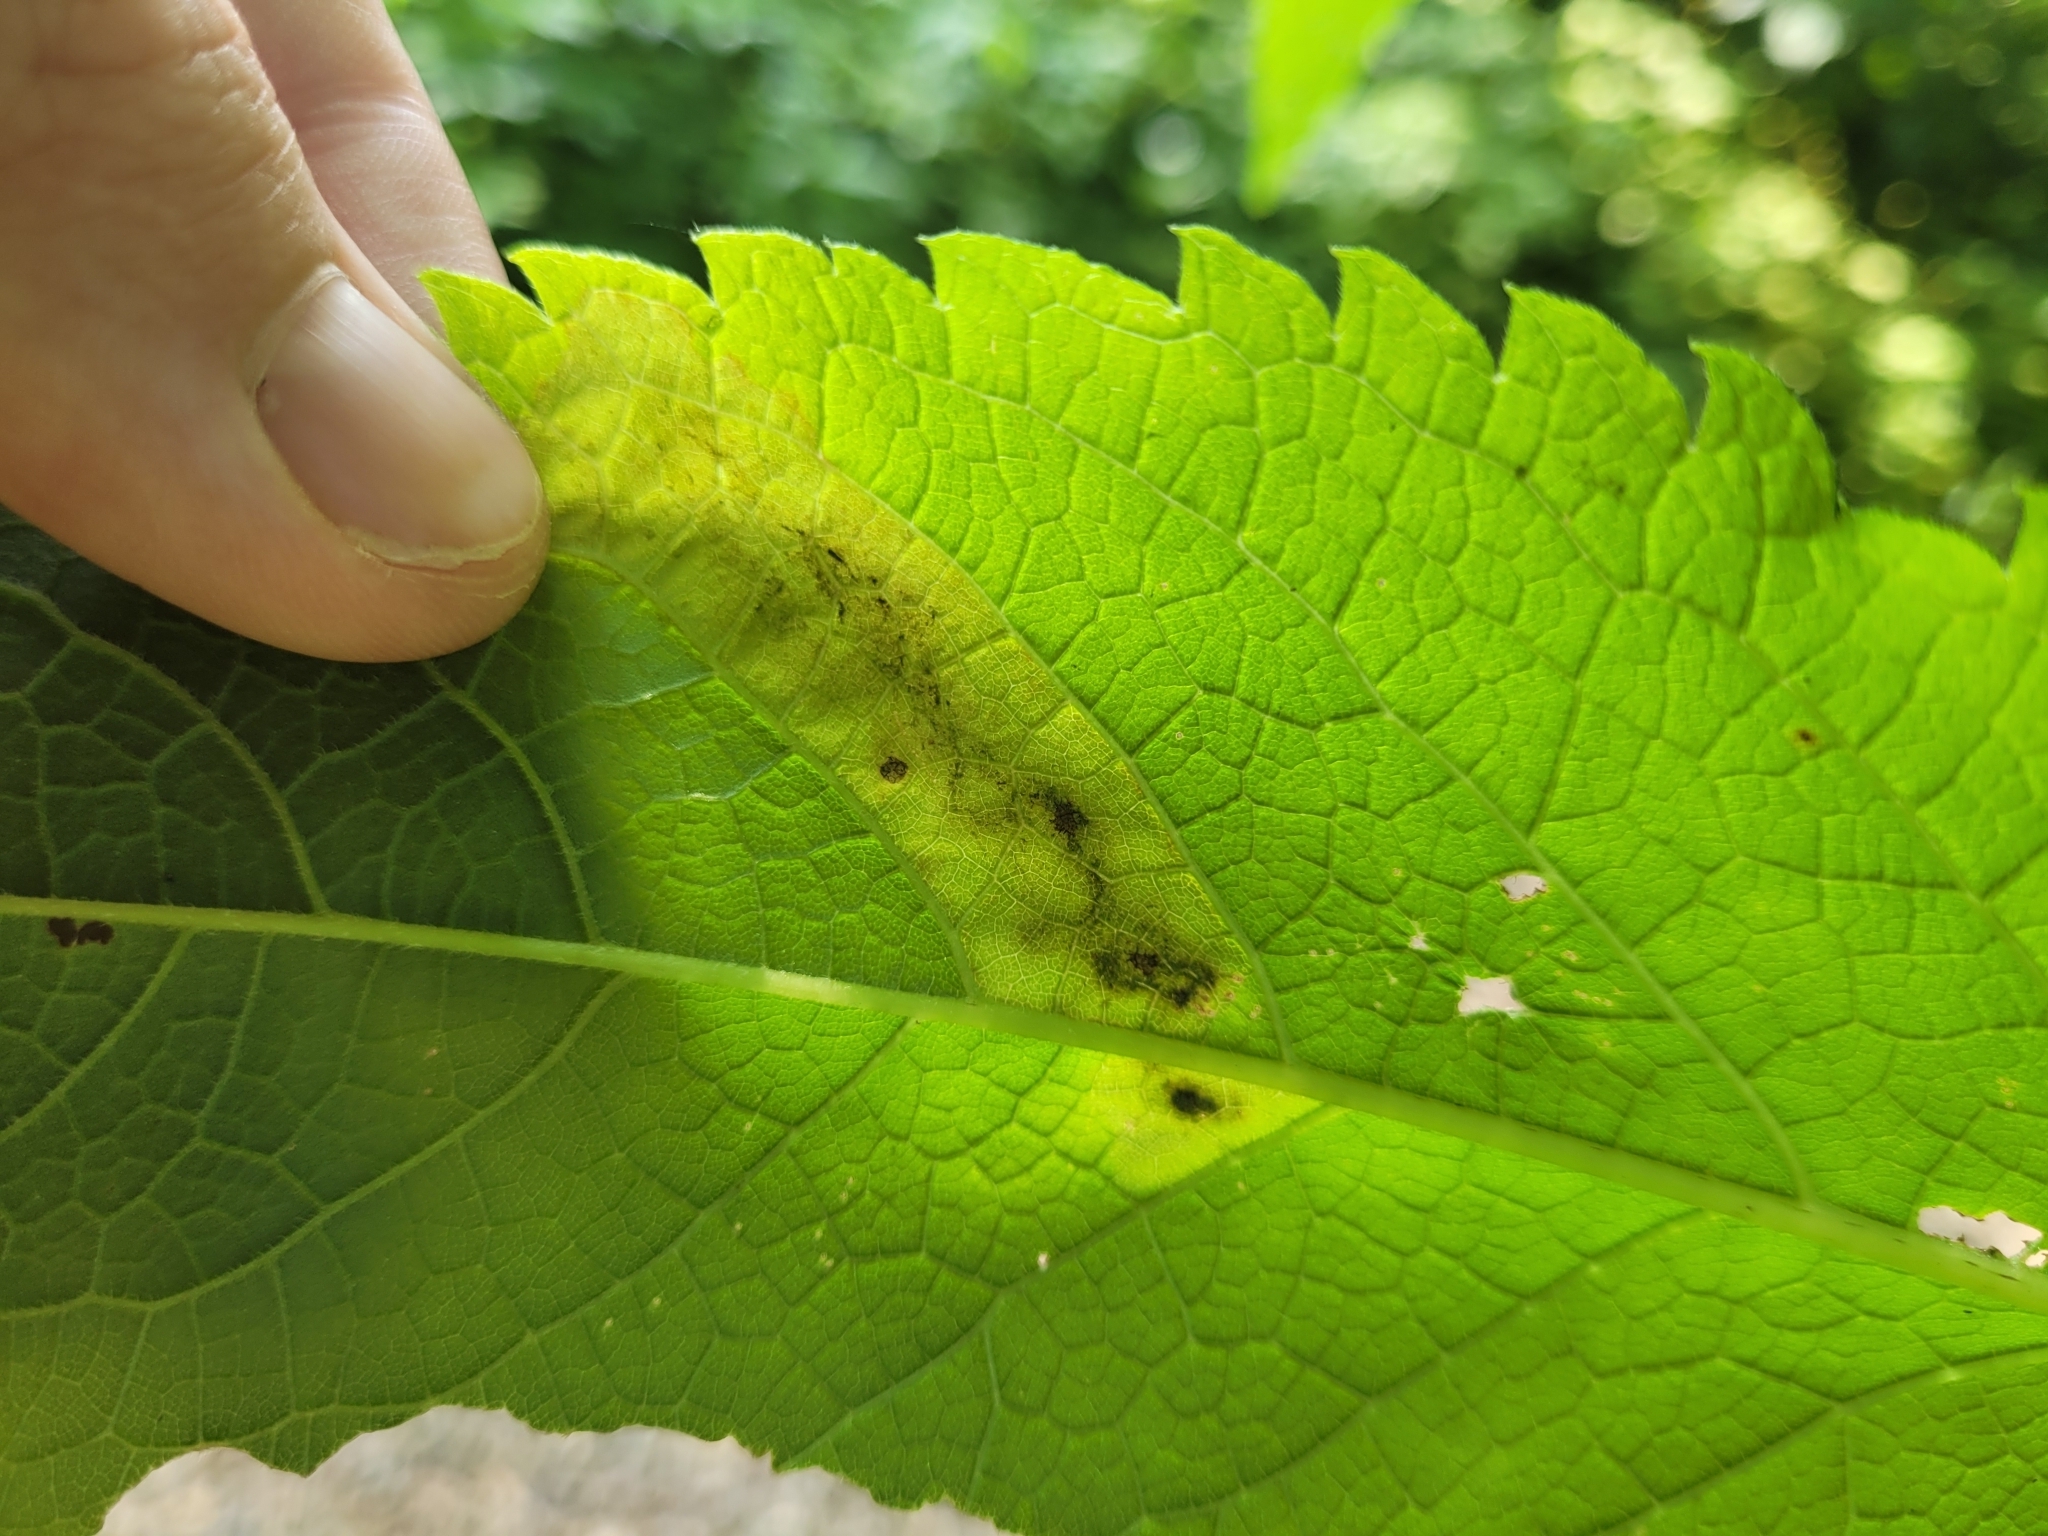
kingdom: Animalia
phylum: Arthropoda
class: Insecta
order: Diptera
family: Agromyzidae
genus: Calycomyza
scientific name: Calycomyza flavinotum
